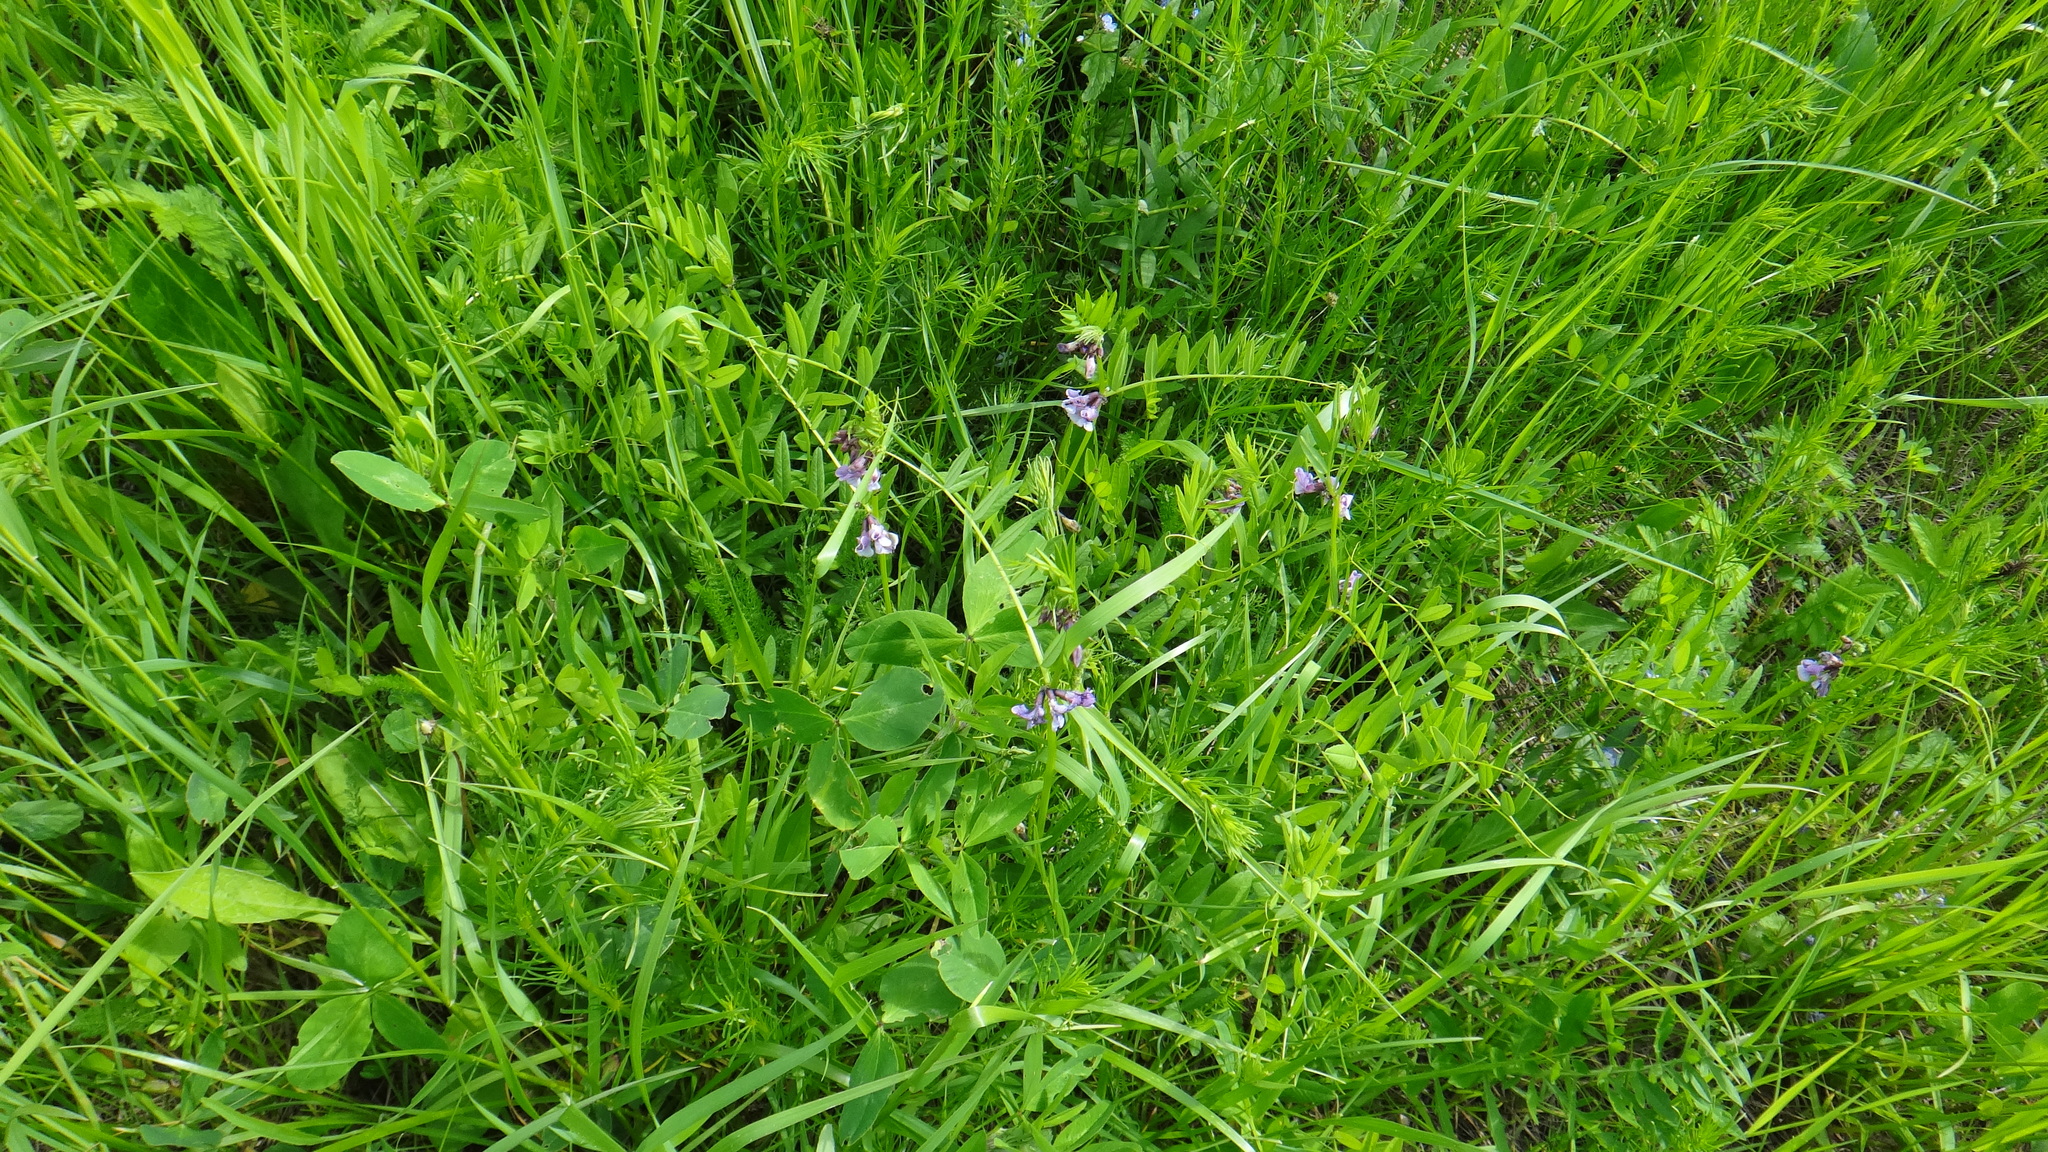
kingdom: Plantae
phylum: Tracheophyta
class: Magnoliopsida
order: Fabales
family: Fabaceae
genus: Vicia
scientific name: Vicia sepium
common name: Bush vetch
